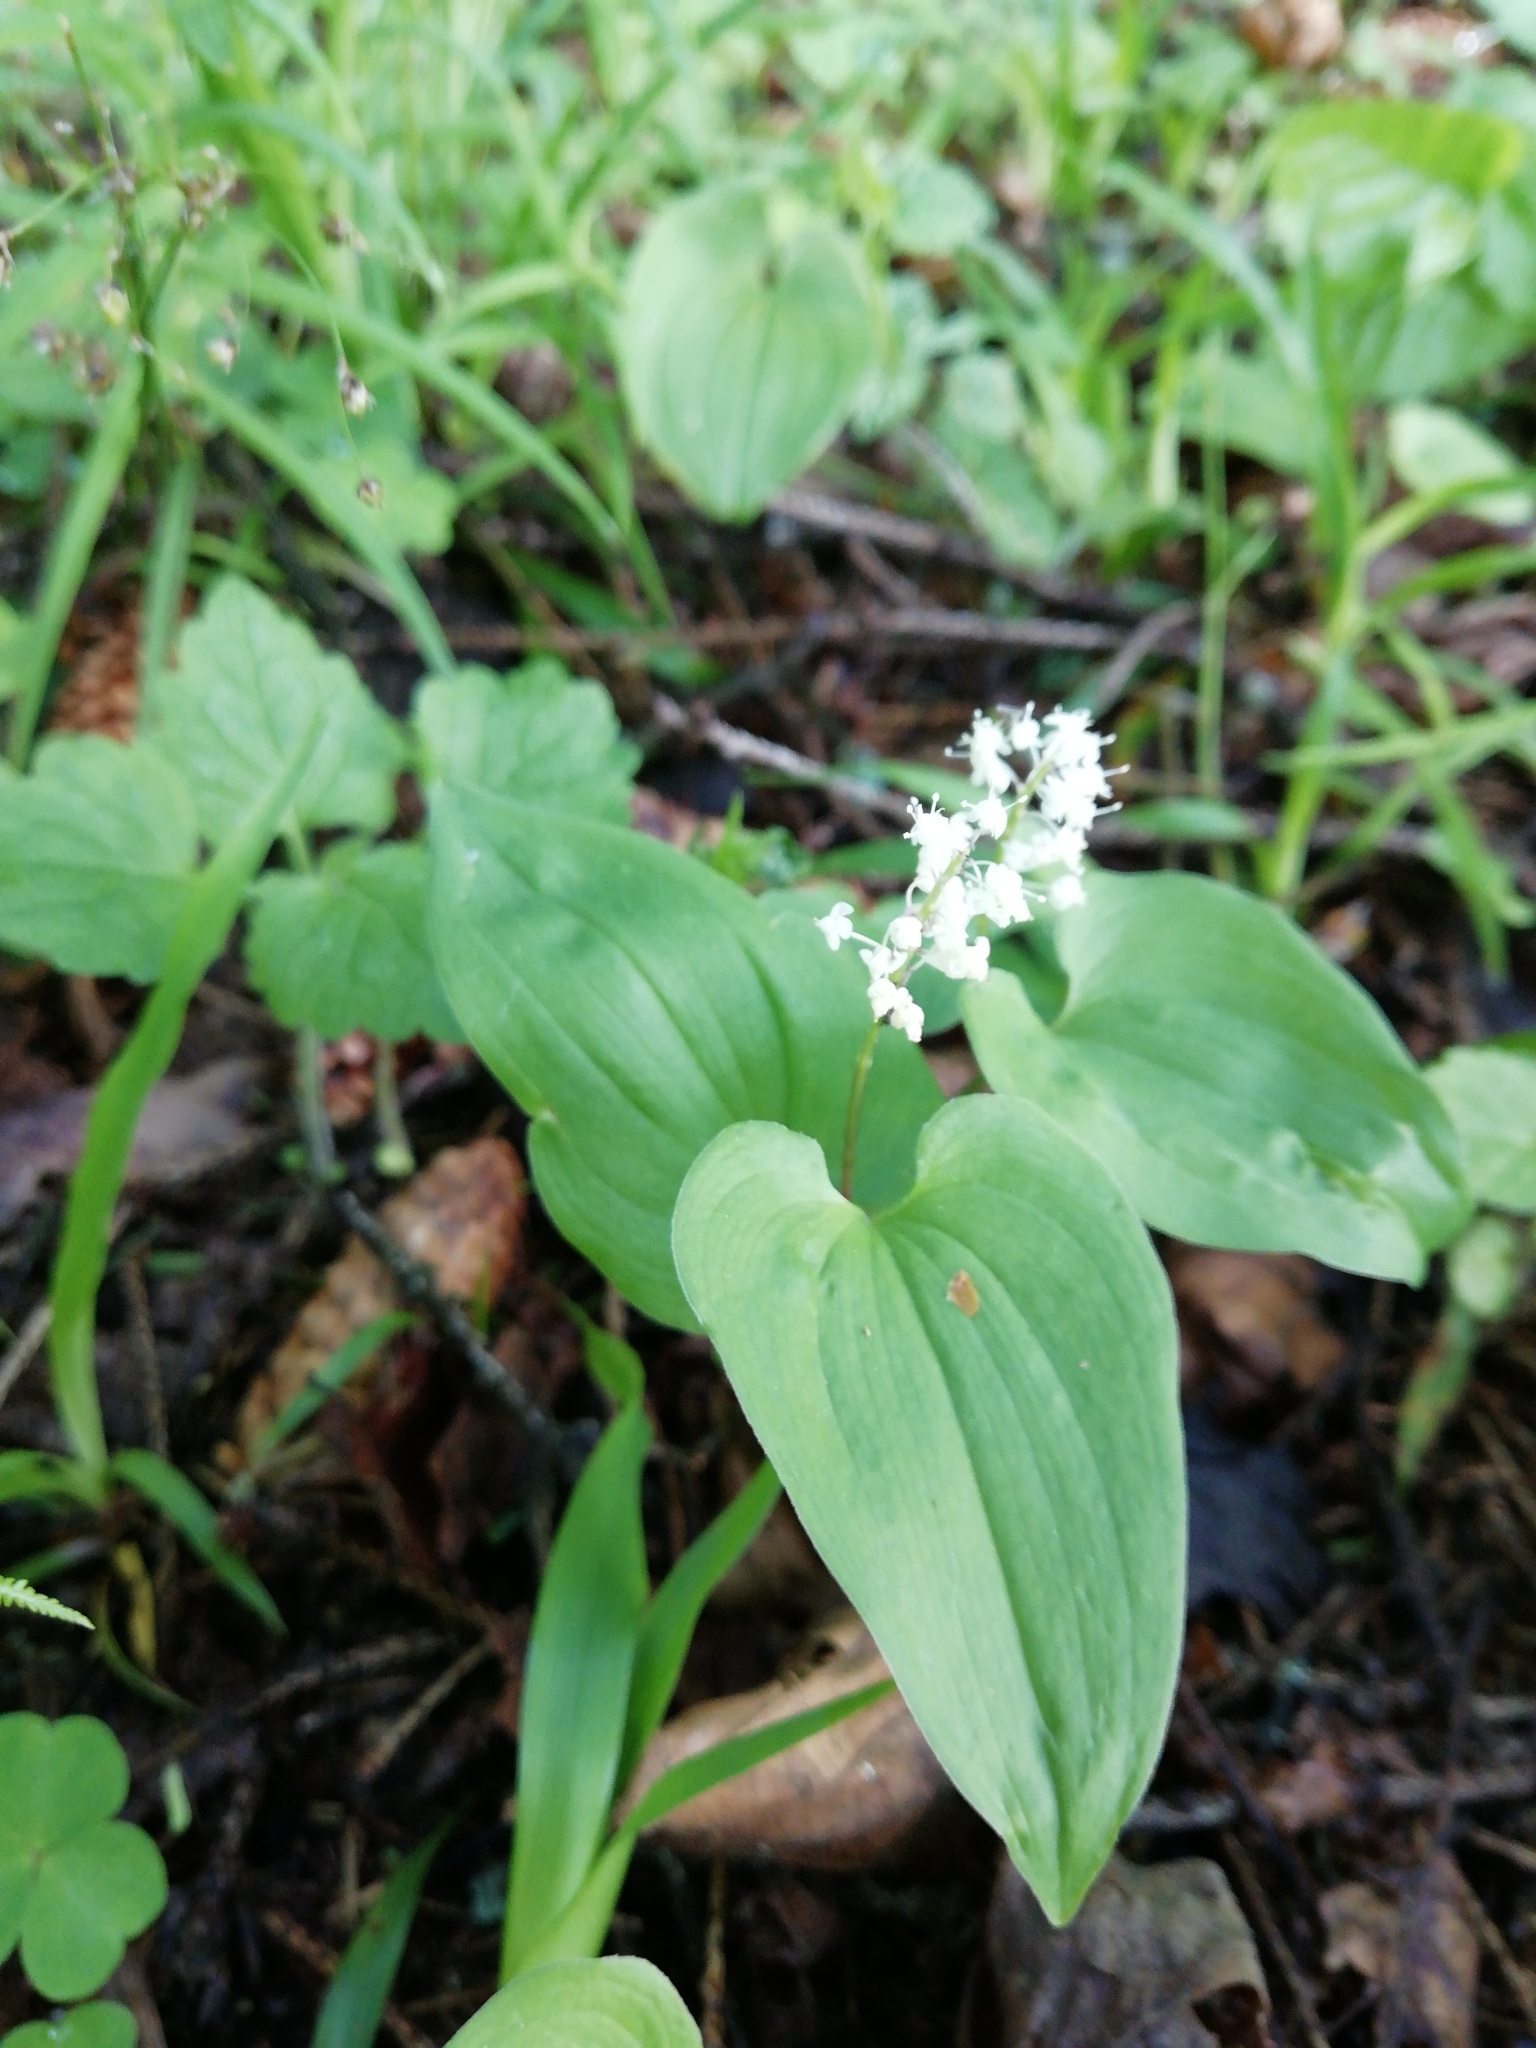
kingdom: Plantae
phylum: Tracheophyta
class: Liliopsida
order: Asparagales
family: Asparagaceae
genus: Maianthemum
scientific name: Maianthemum bifolium
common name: May lily
